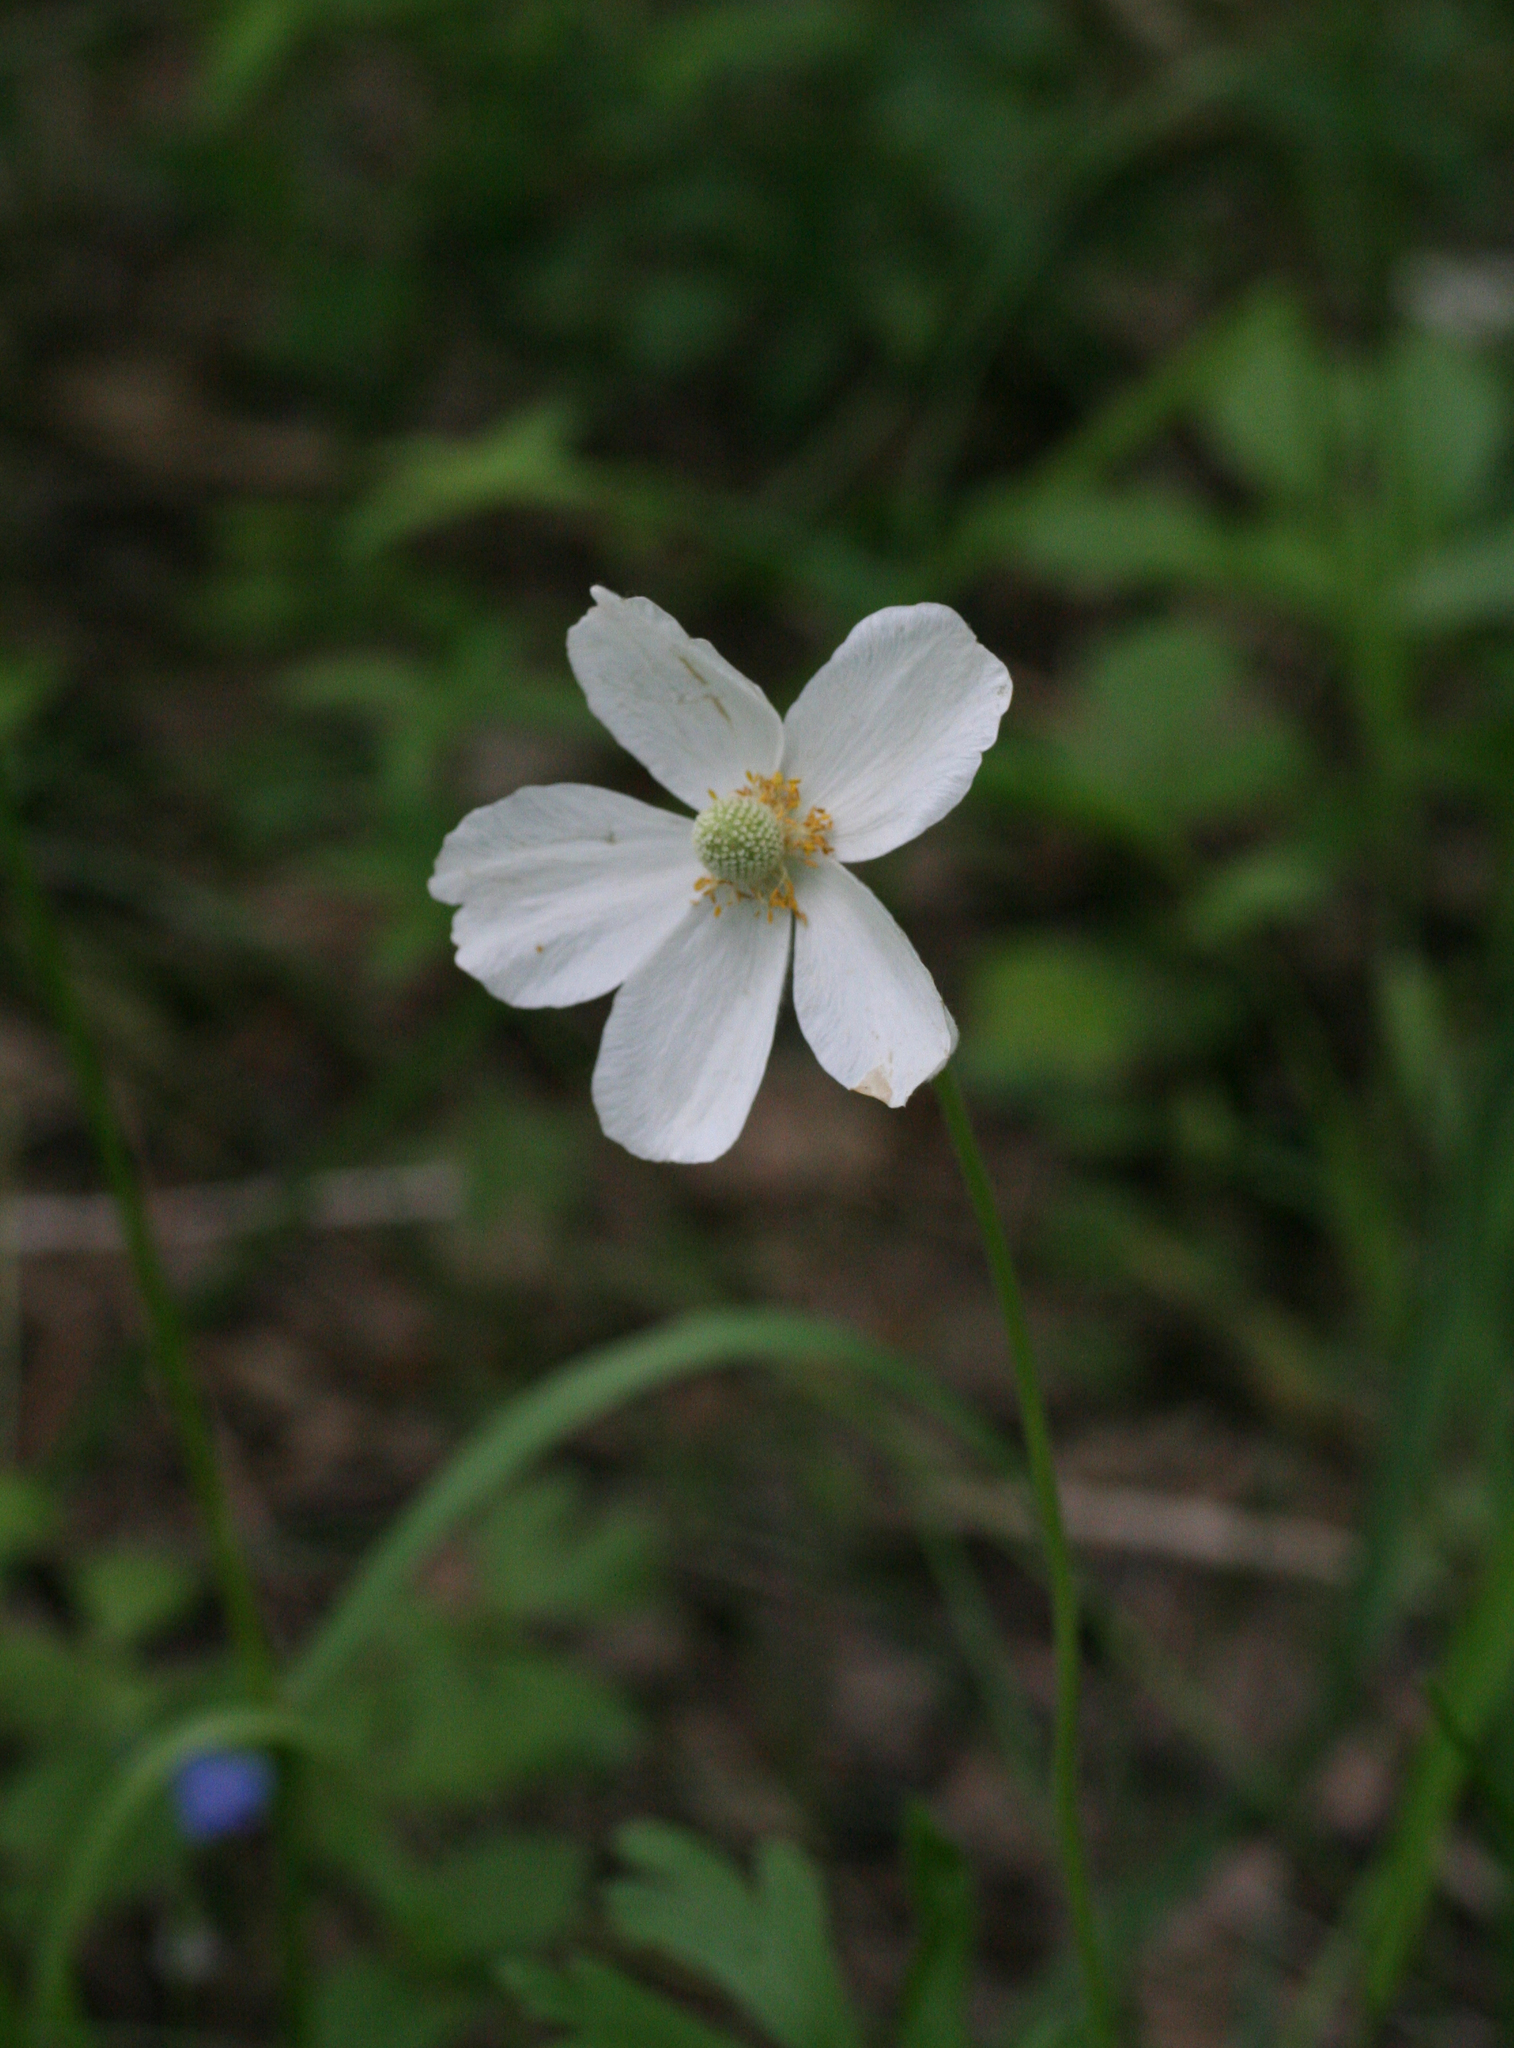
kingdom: Plantae
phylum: Tracheophyta
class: Magnoliopsida
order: Ranunculales
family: Ranunculaceae
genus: Anemone
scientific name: Anemone sylvestris
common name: Snowdrop anemone
